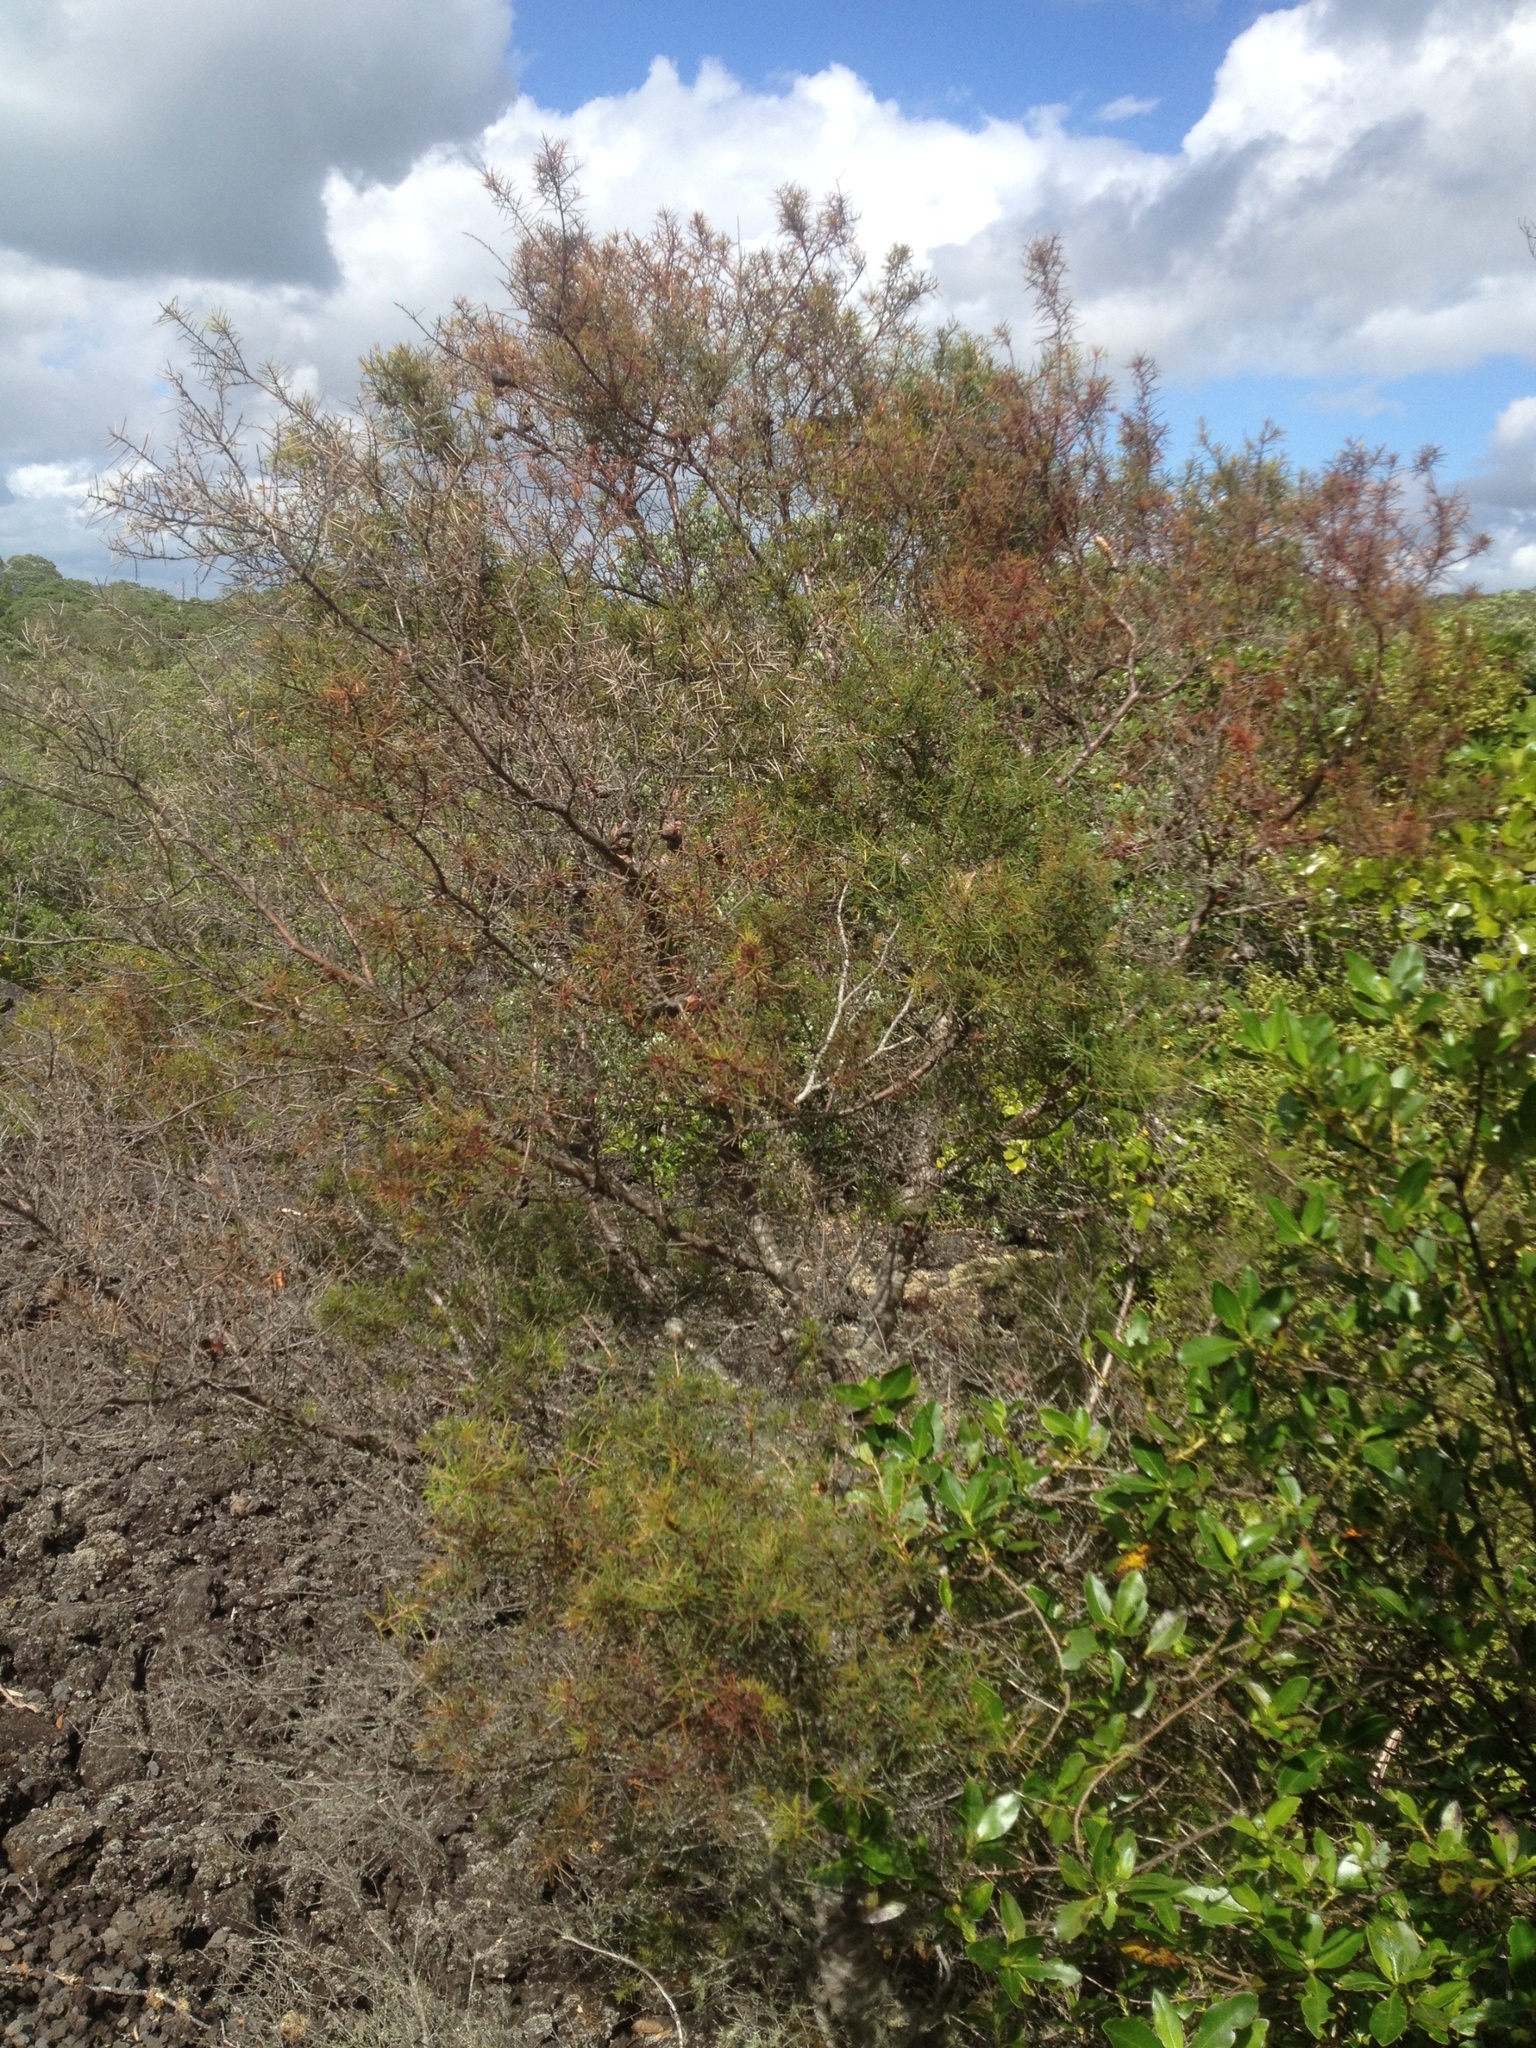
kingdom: Plantae
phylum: Tracheophyta
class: Magnoliopsida
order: Proteales
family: Proteaceae
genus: Hakea
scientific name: Hakea sericea
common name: Needle bush
